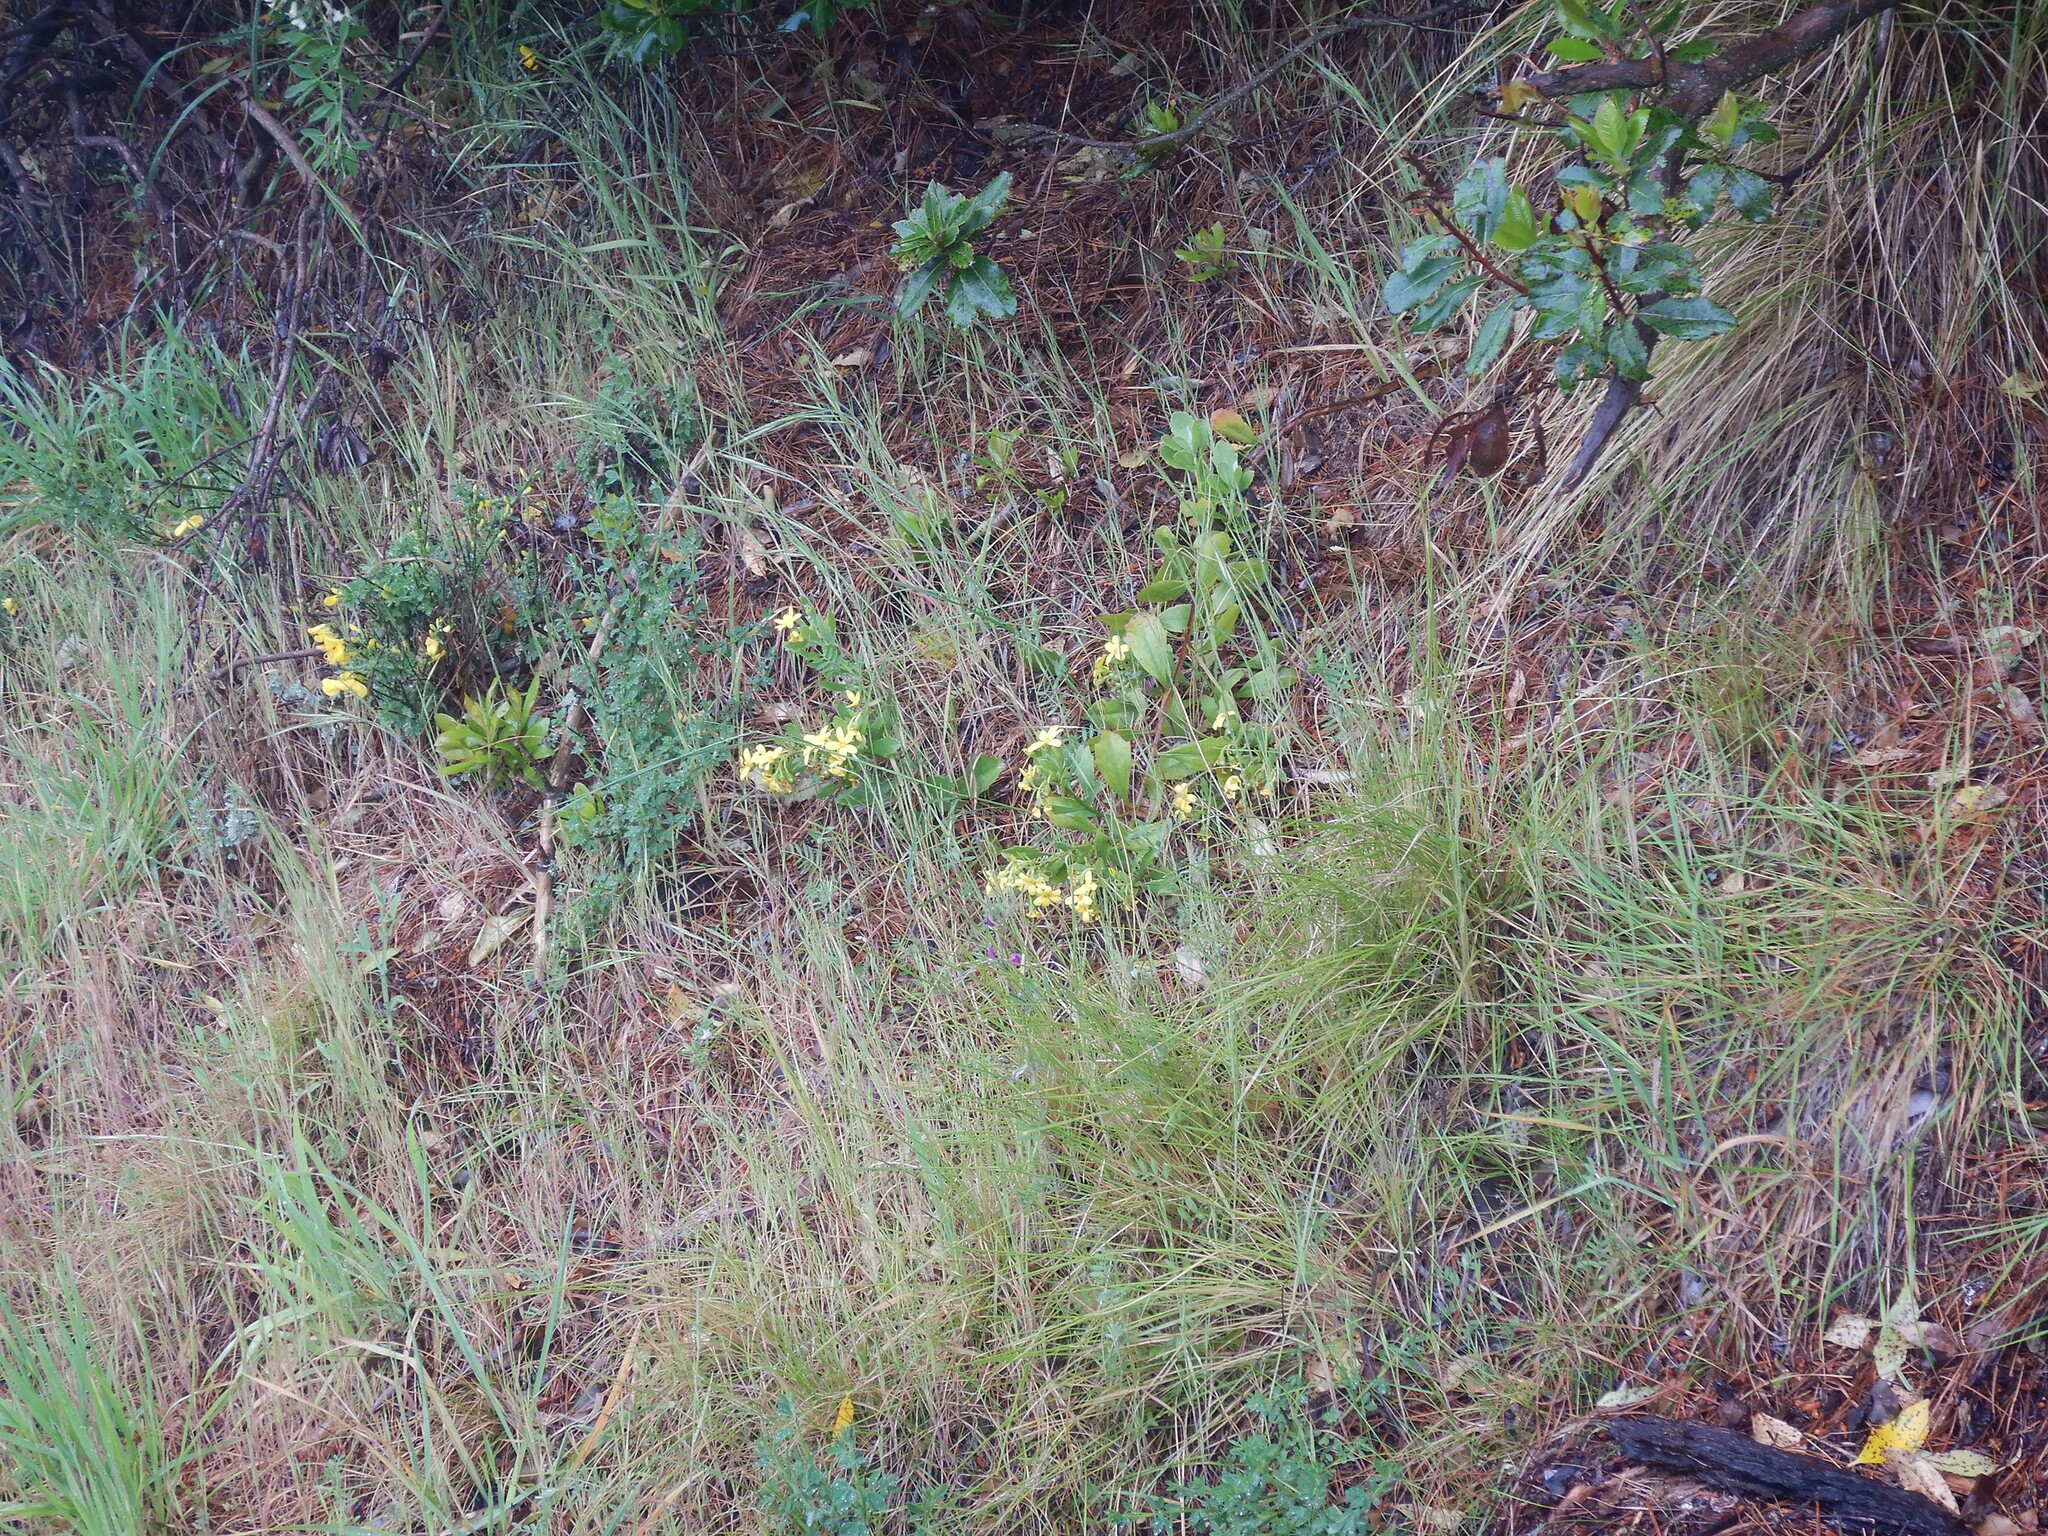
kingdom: Plantae
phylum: Tracheophyta
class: Magnoliopsida
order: Asterales
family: Asteraceae
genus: Osteospermum
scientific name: Osteospermum moniliferum
